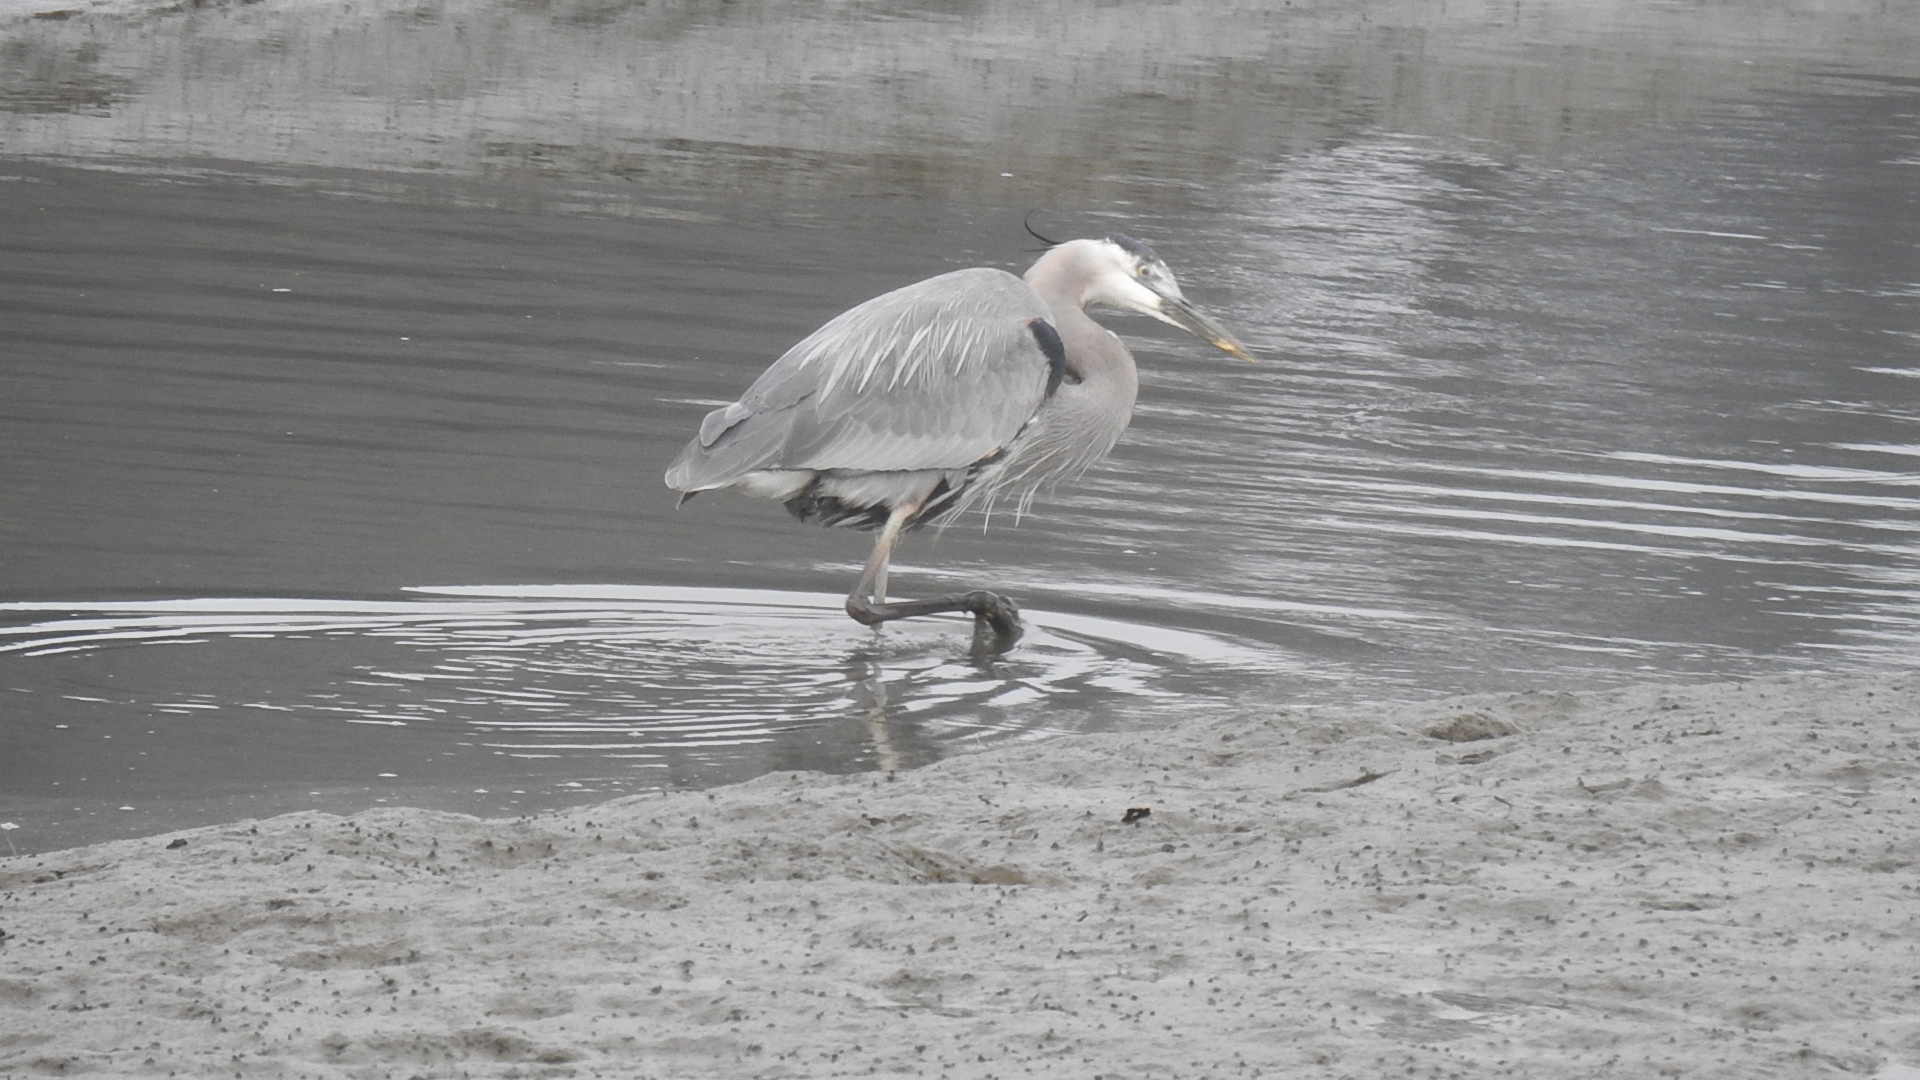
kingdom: Animalia
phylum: Chordata
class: Aves
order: Pelecaniformes
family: Ardeidae
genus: Ardea
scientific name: Ardea herodias
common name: Great blue heron
